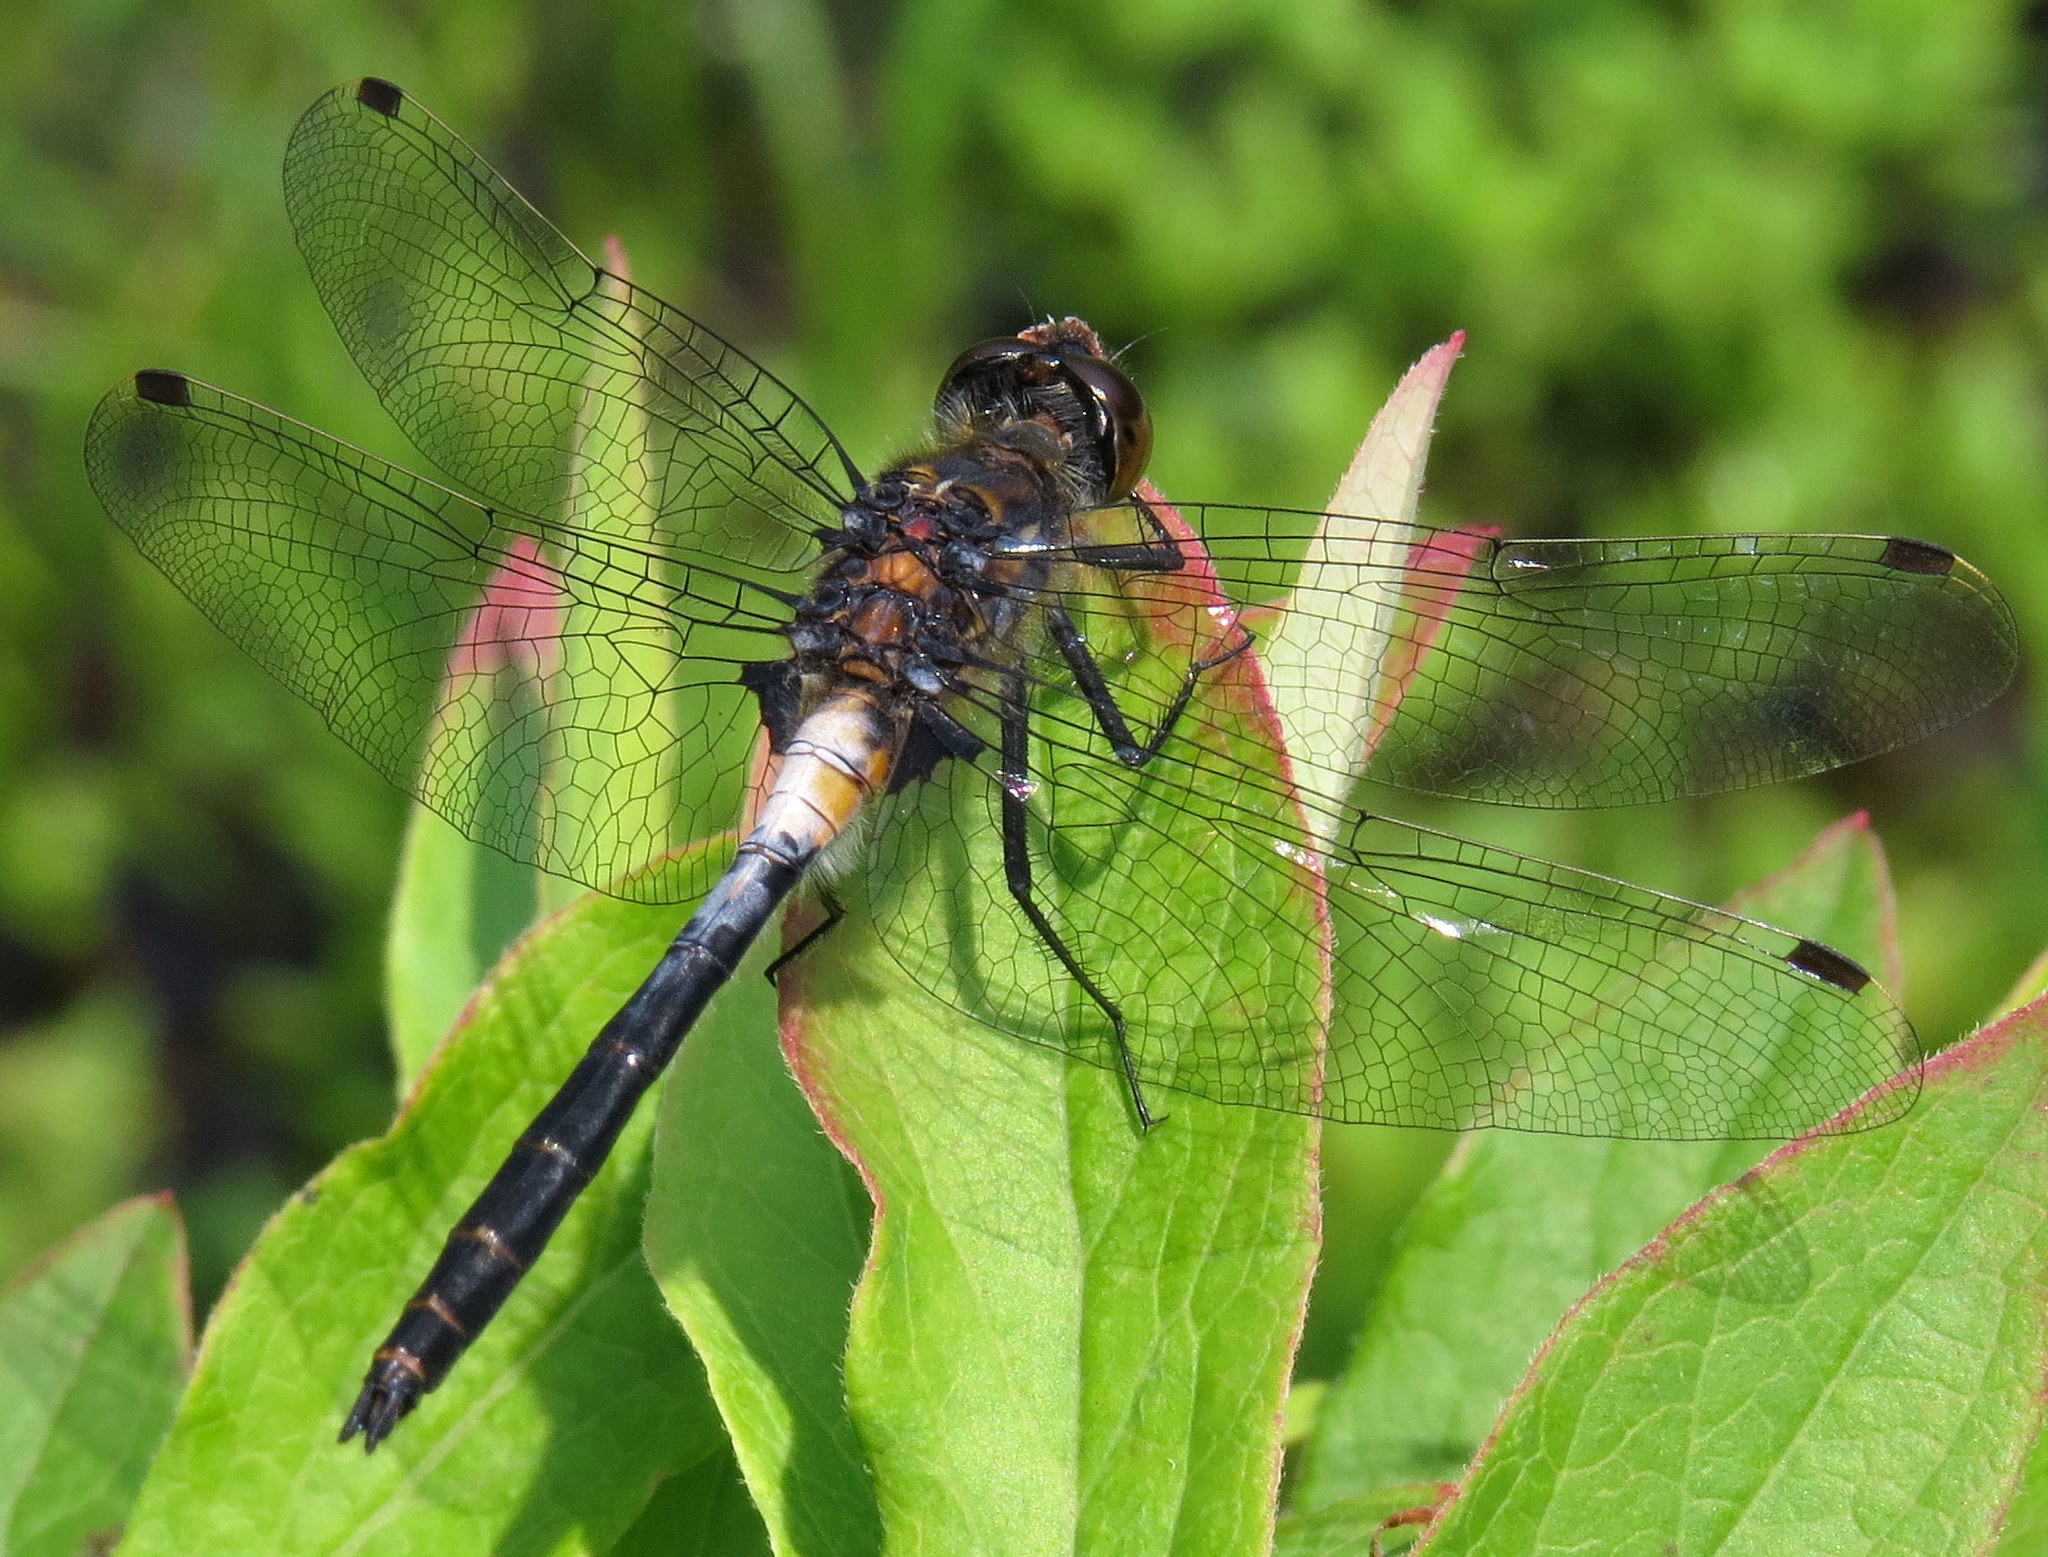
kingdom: Animalia
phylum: Arthropoda
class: Insecta
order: Odonata
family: Libellulidae
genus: Leucorrhinia
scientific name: Leucorrhinia proxima
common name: Belted whiteface
